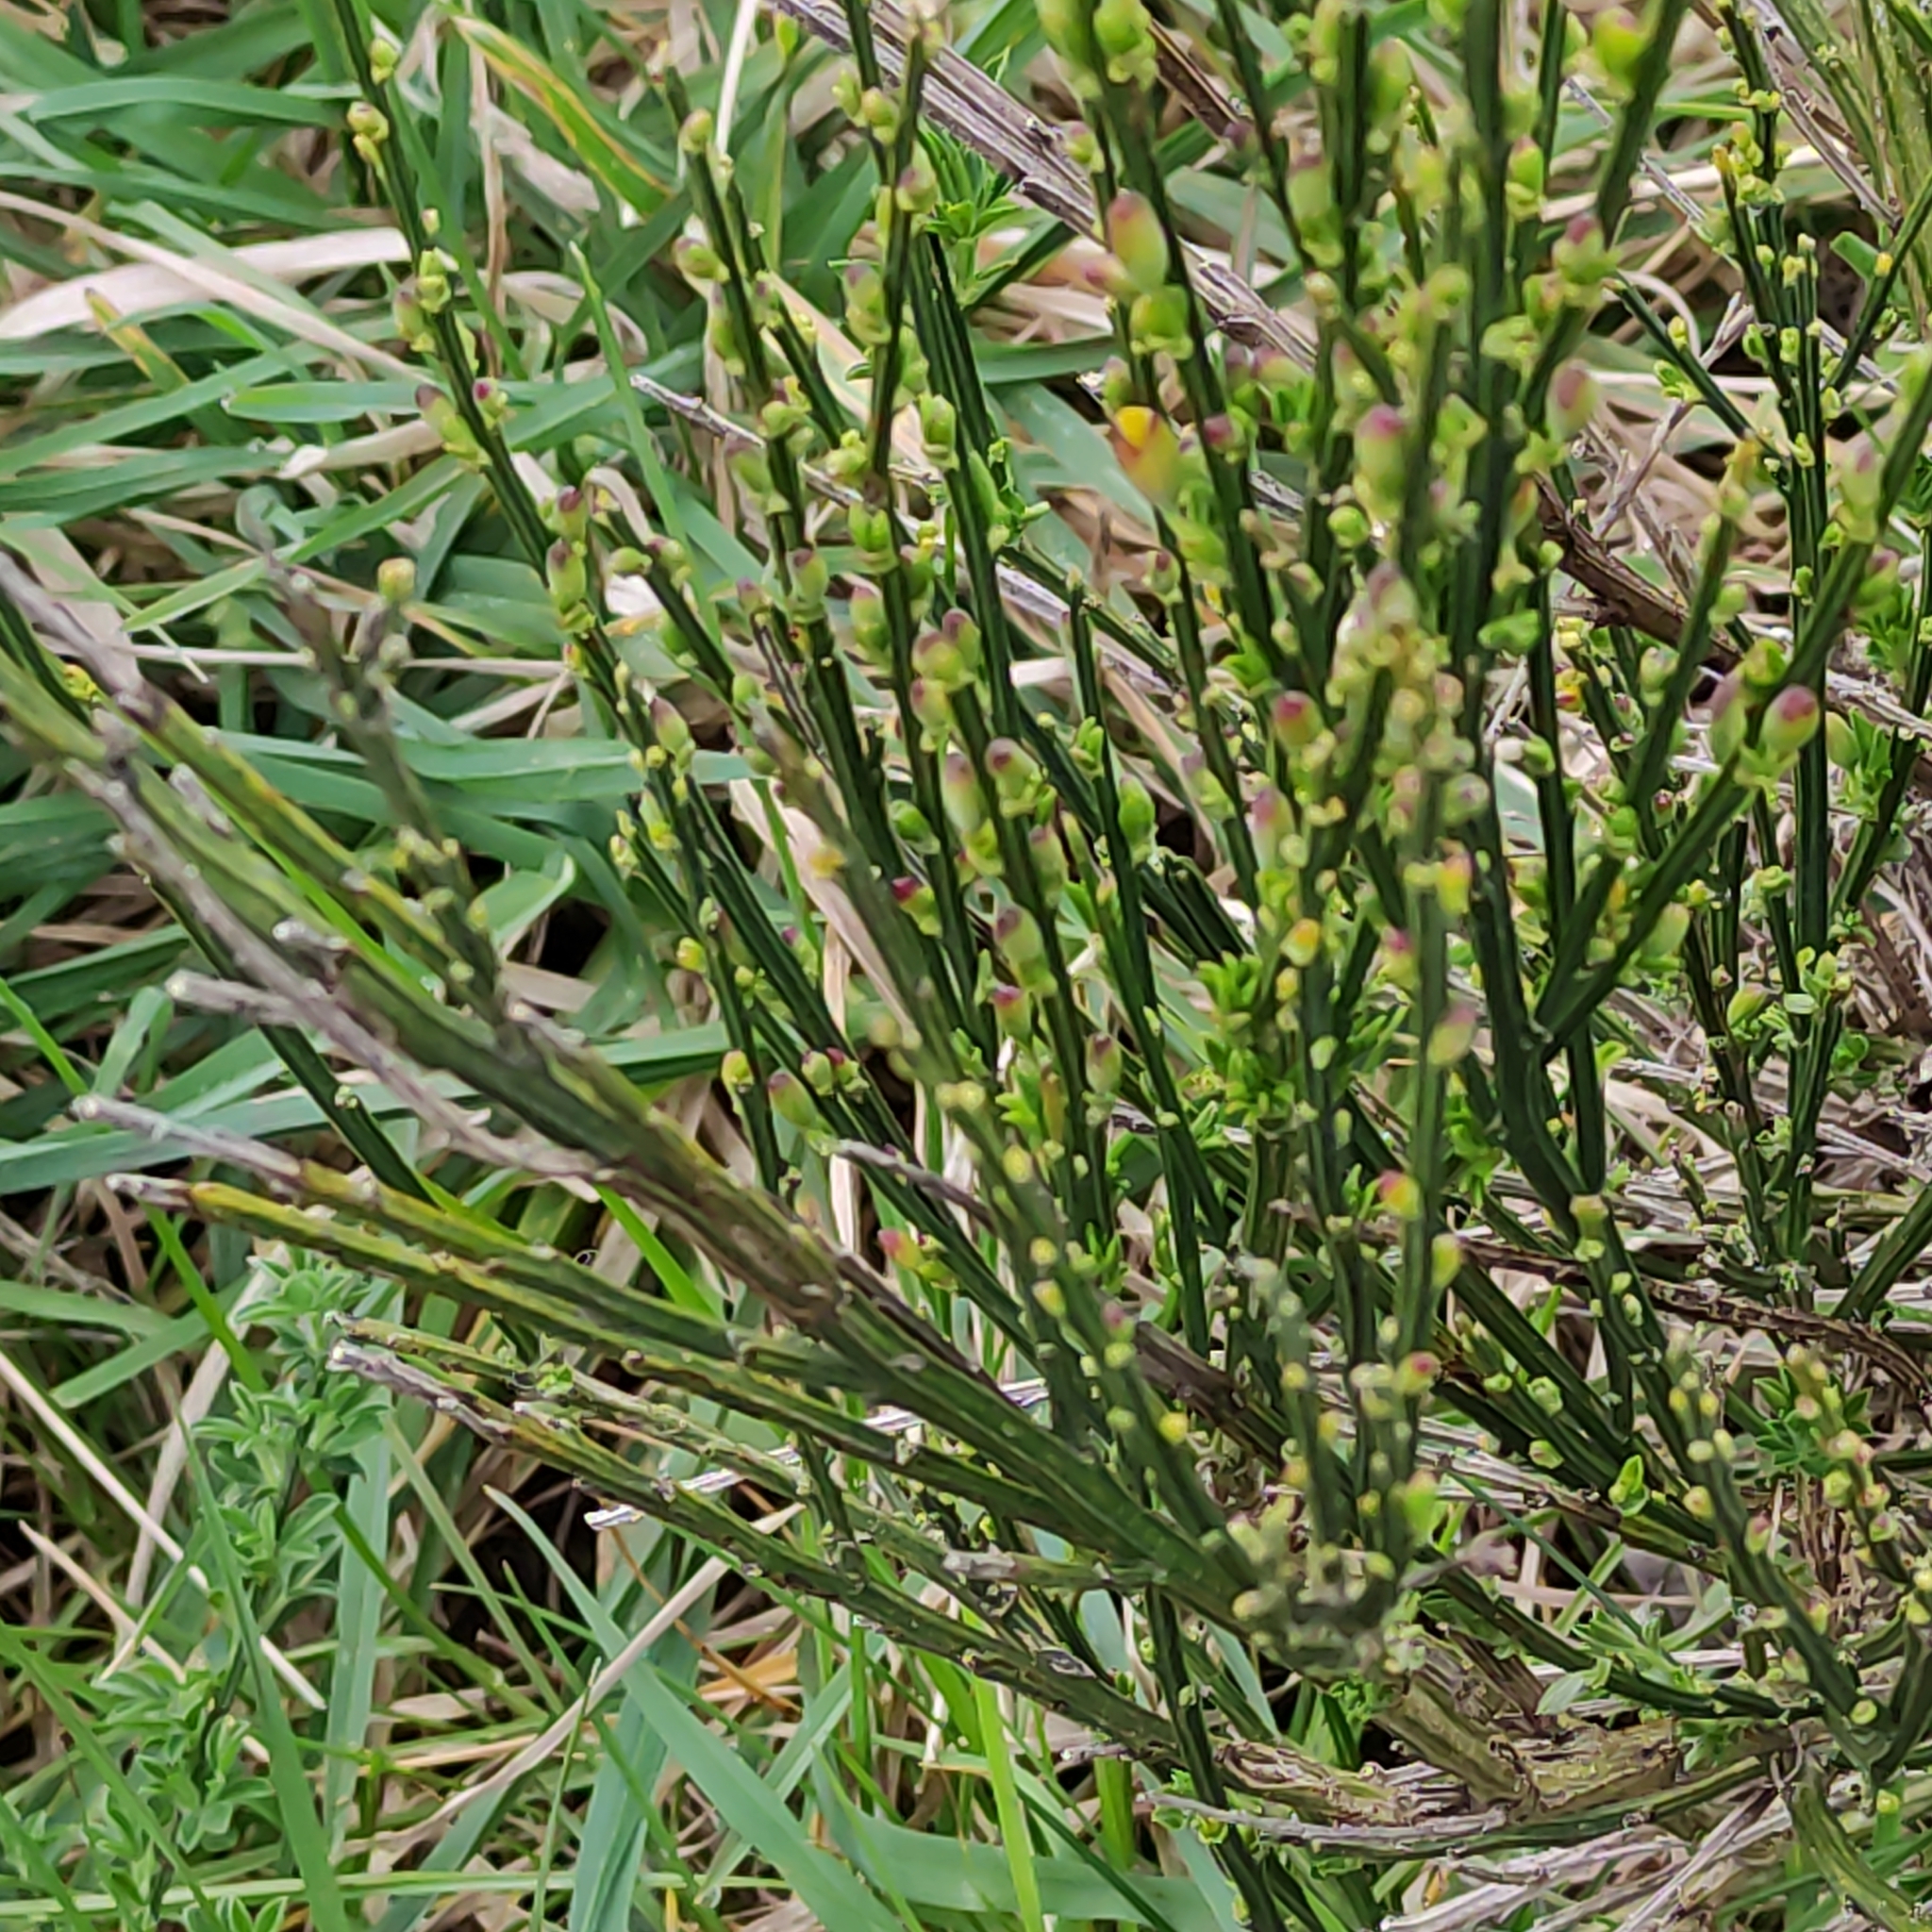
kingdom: Plantae
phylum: Tracheophyta
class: Magnoliopsida
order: Fabales
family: Fabaceae
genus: Cytisus
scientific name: Cytisus scoparius
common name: Scotch broom
